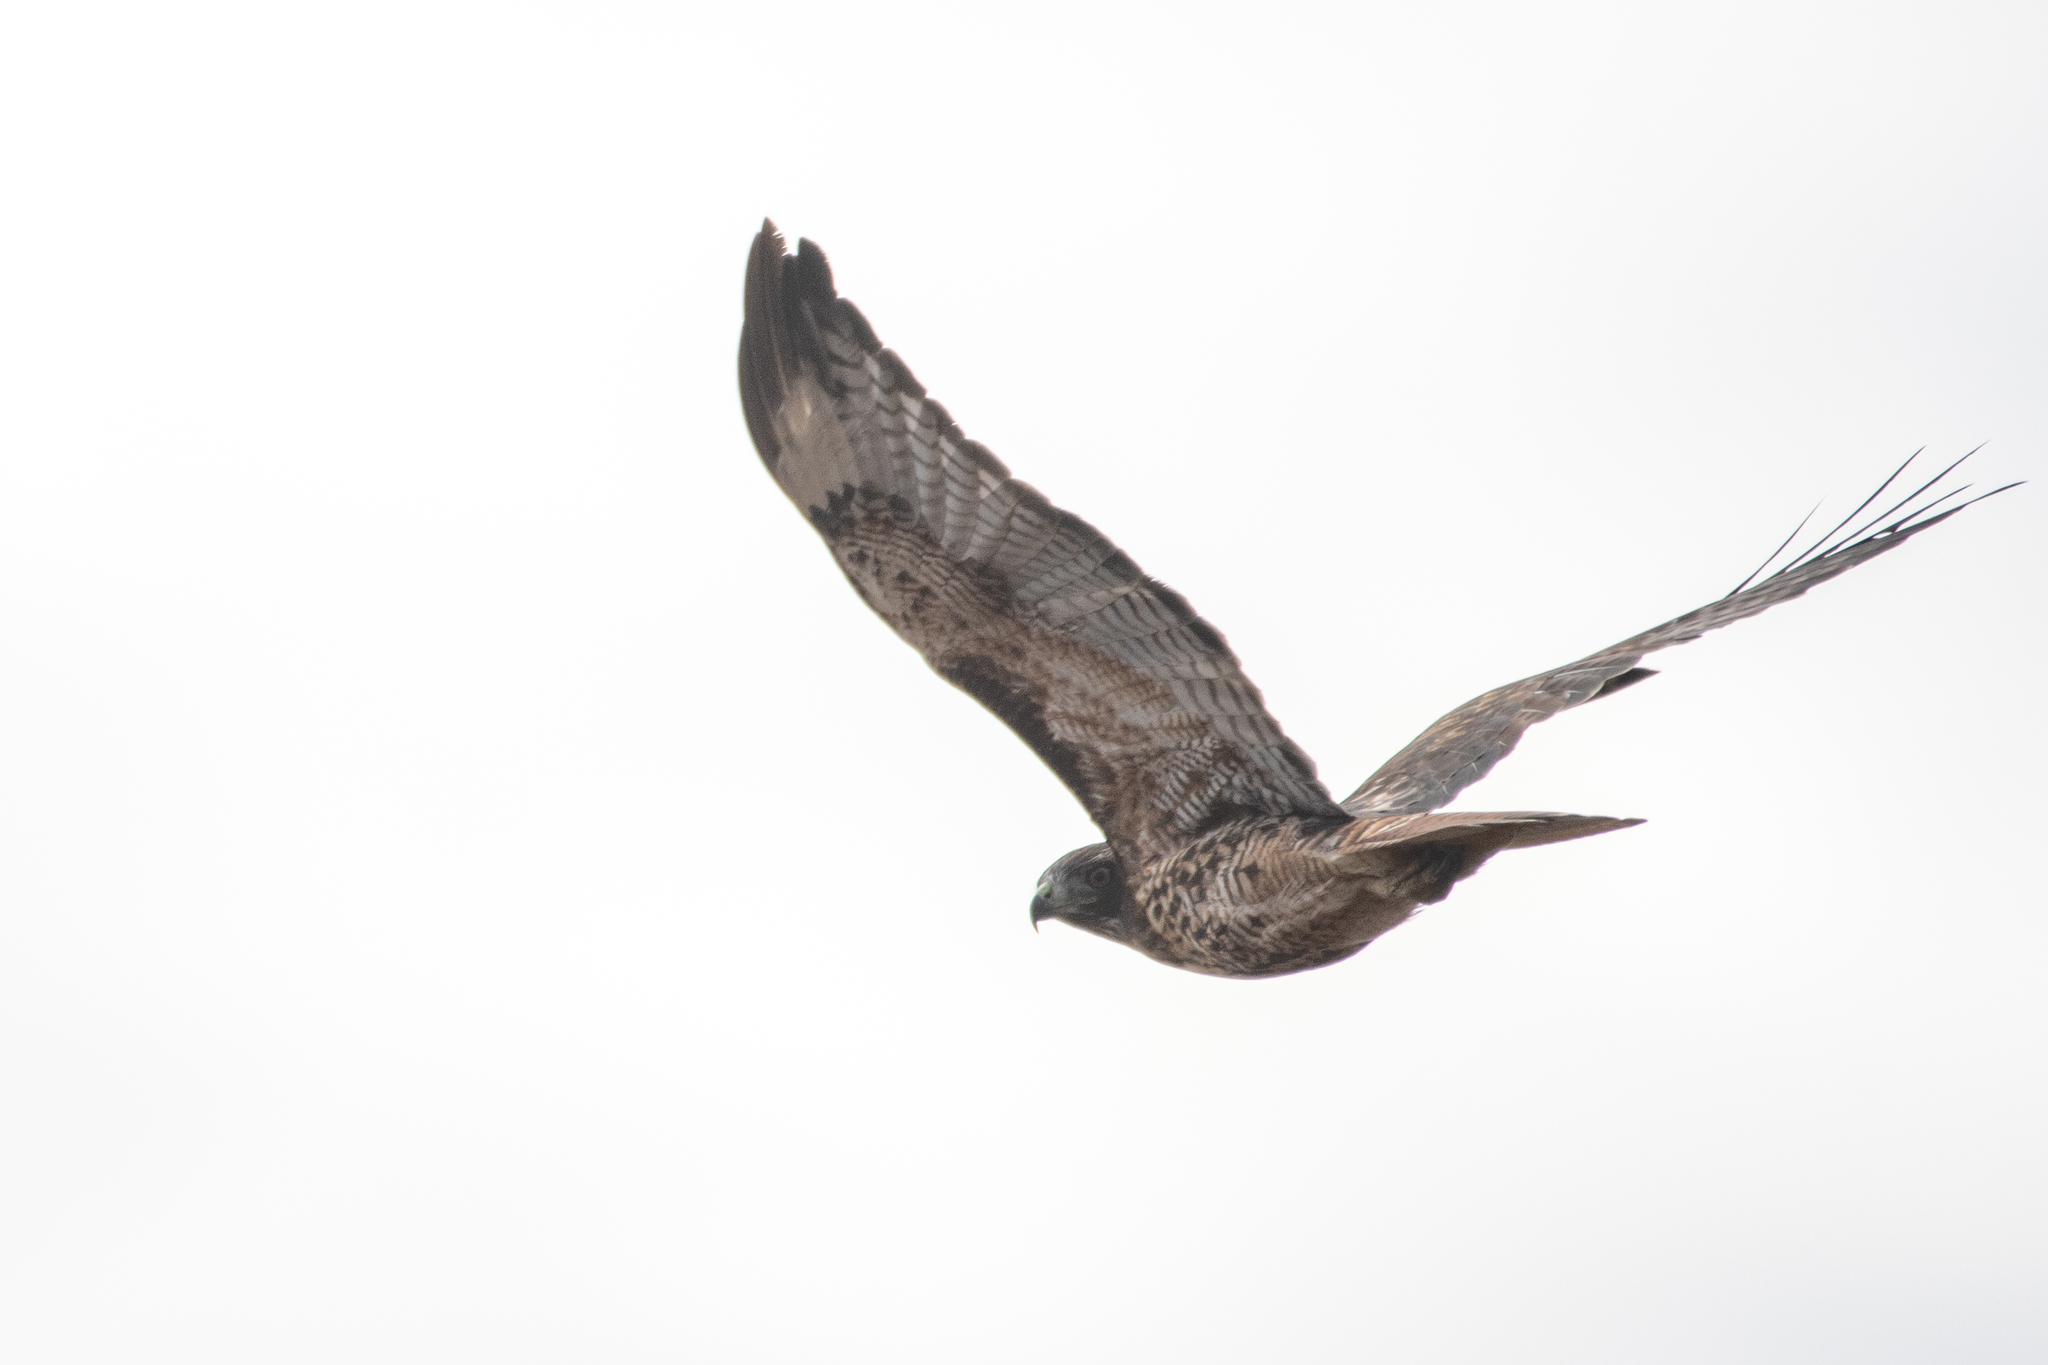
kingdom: Animalia
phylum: Chordata
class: Aves
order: Accipitriformes
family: Accipitridae
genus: Buteo
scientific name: Buteo jamaicensis
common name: Red-tailed hawk
